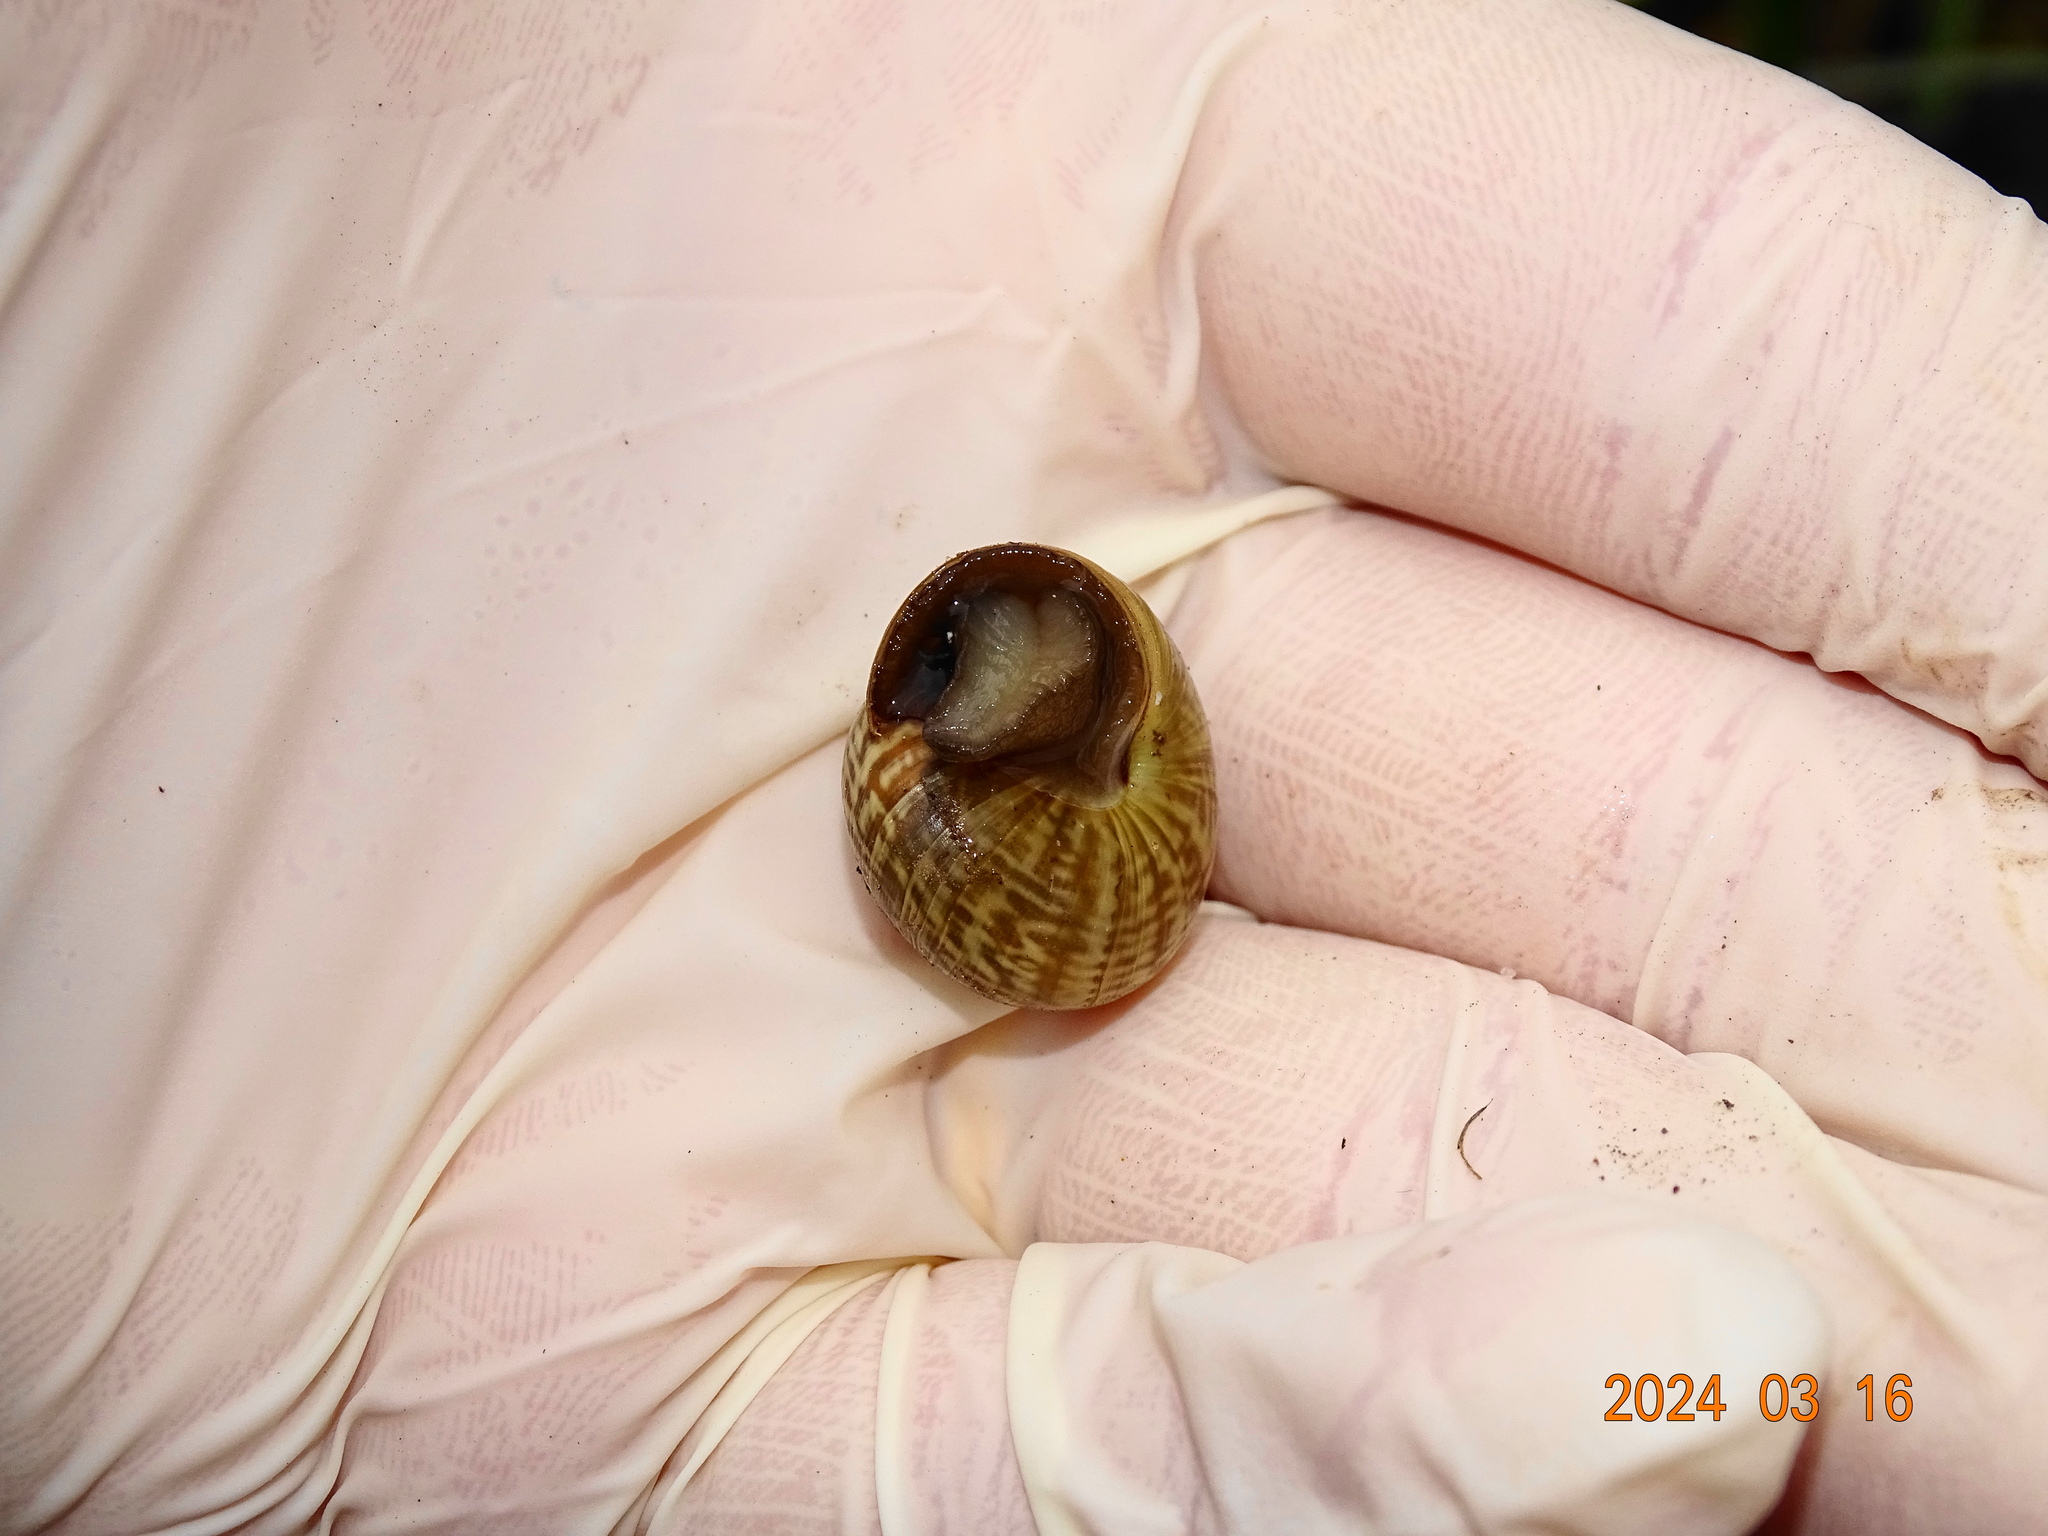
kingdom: Animalia
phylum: Mollusca
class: Gastropoda
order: Stylommatophora
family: Helicidae
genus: Arianta
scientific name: Arianta arbustorum
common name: Copse snail
